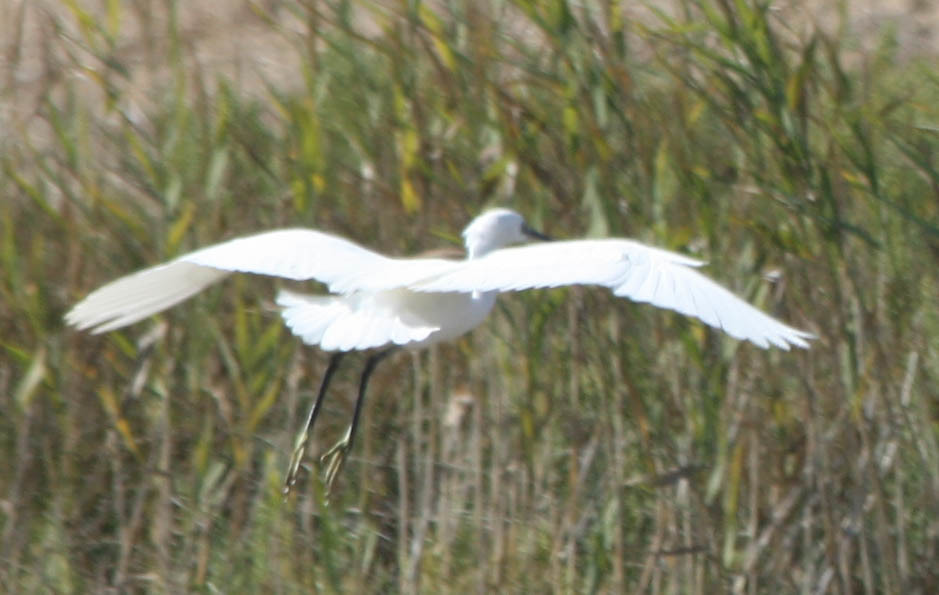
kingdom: Animalia
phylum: Chordata
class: Aves
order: Pelecaniformes
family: Ardeidae
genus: Egretta
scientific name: Egretta garzetta
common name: Little egret
